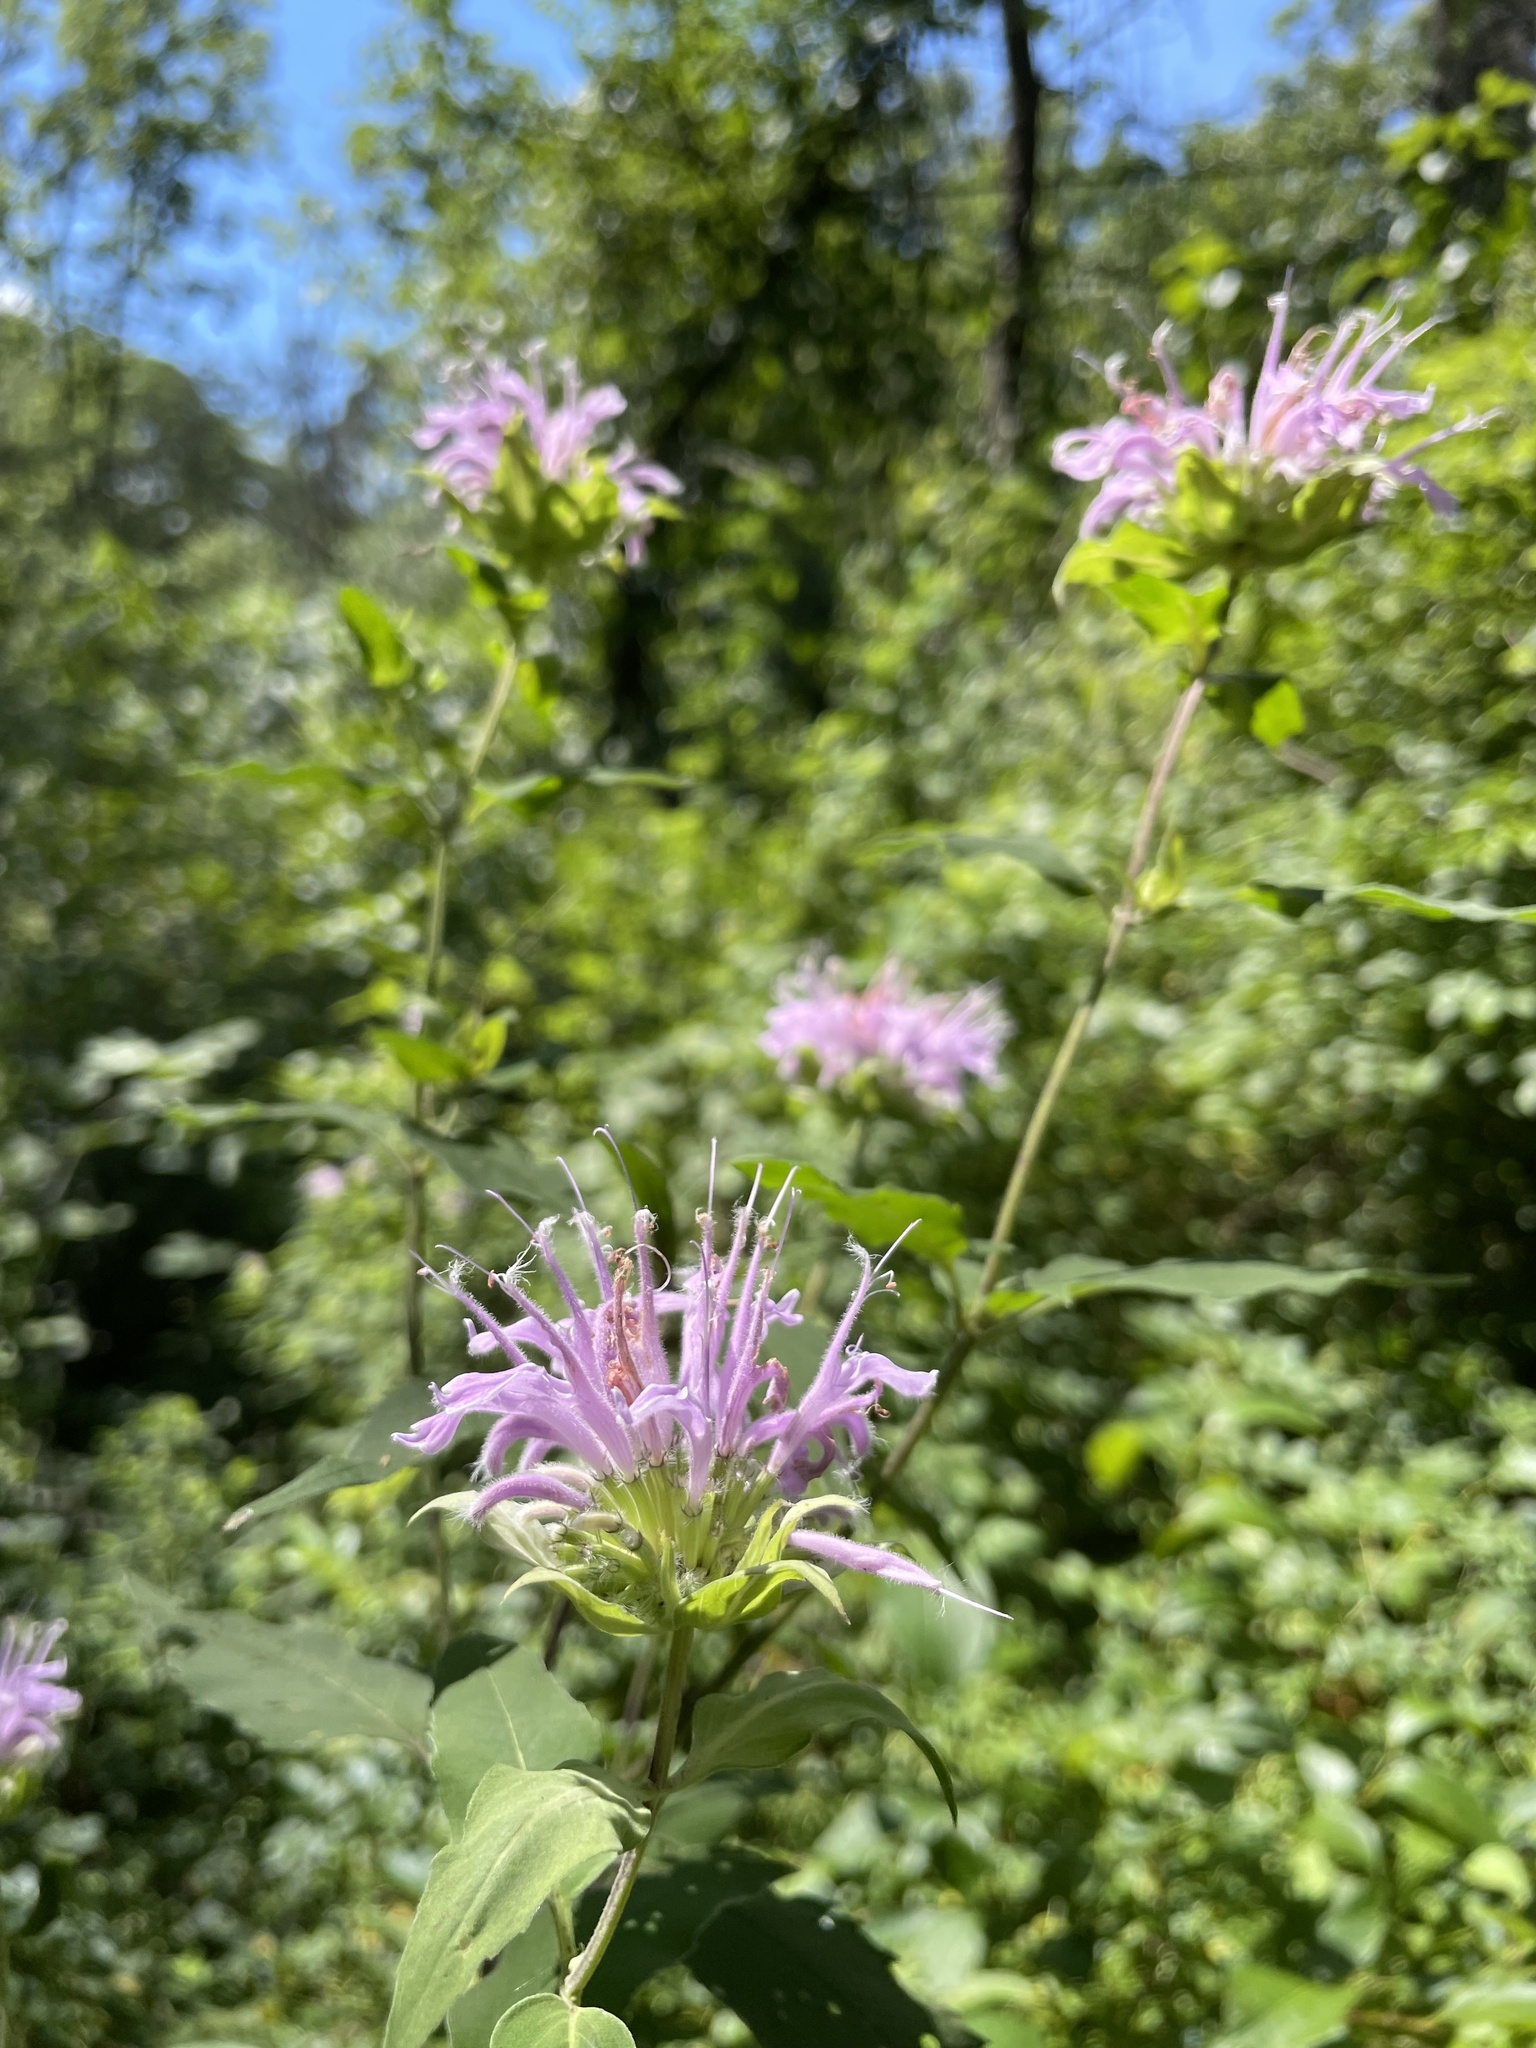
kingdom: Plantae
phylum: Tracheophyta
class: Magnoliopsida
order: Lamiales
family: Lamiaceae
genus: Monarda
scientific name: Monarda fistulosa
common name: Purple beebalm
